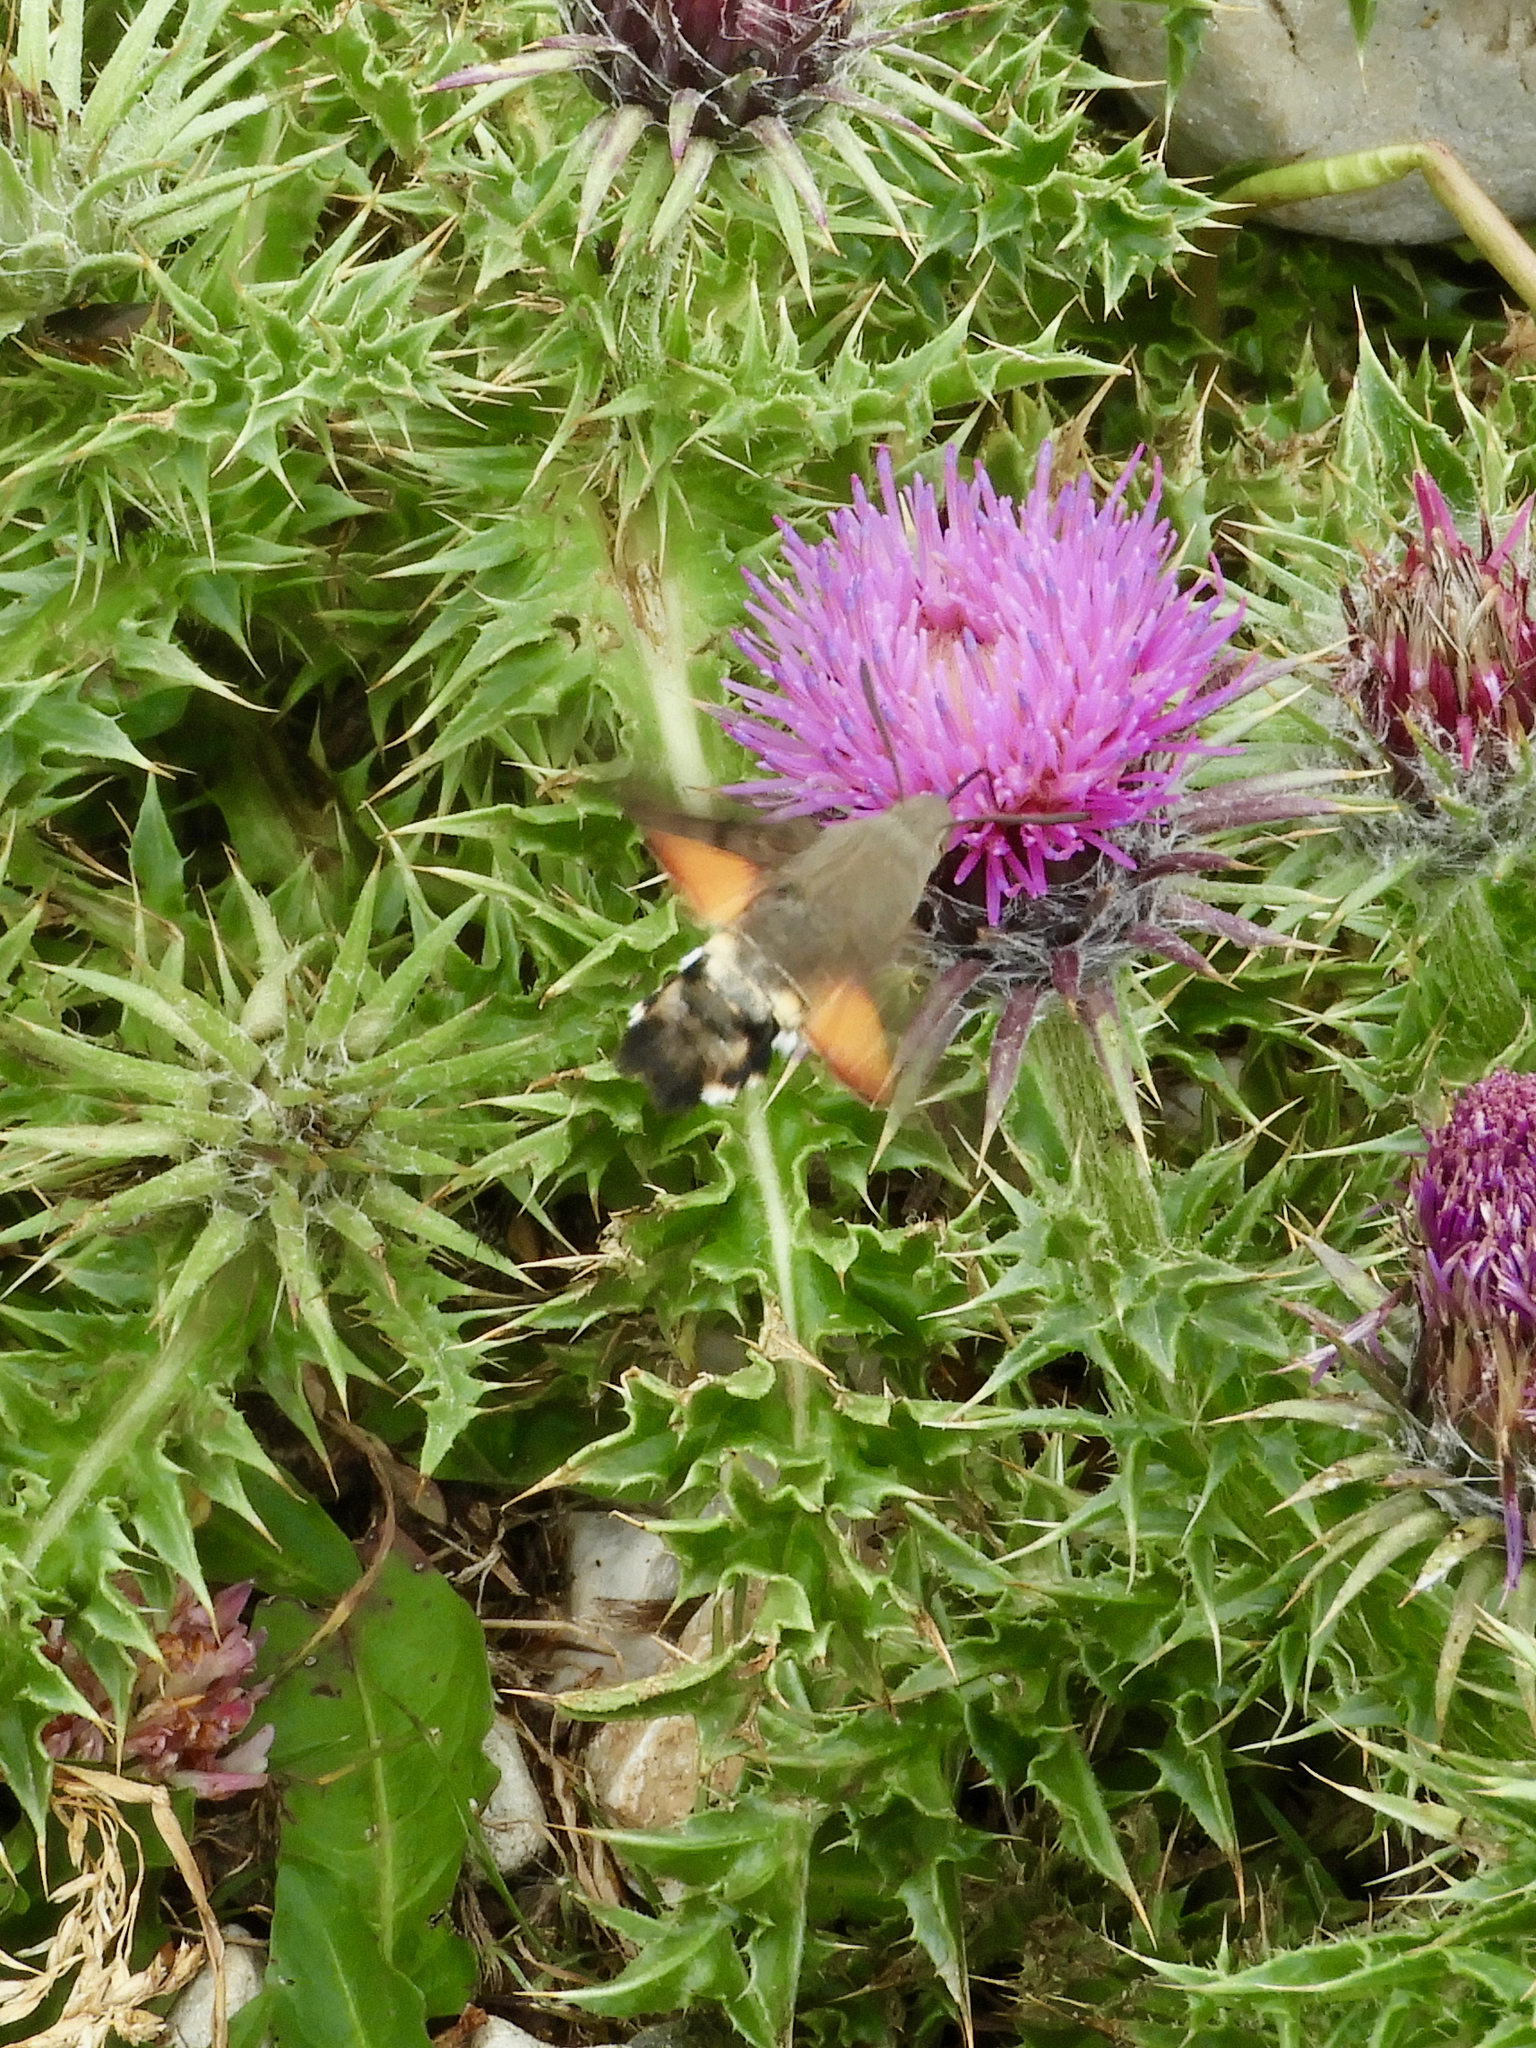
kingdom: Animalia
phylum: Arthropoda
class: Insecta
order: Lepidoptera
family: Sphingidae
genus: Macroglossum
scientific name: Macroglossum stellatarum
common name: Humming-bird hawk-moth
